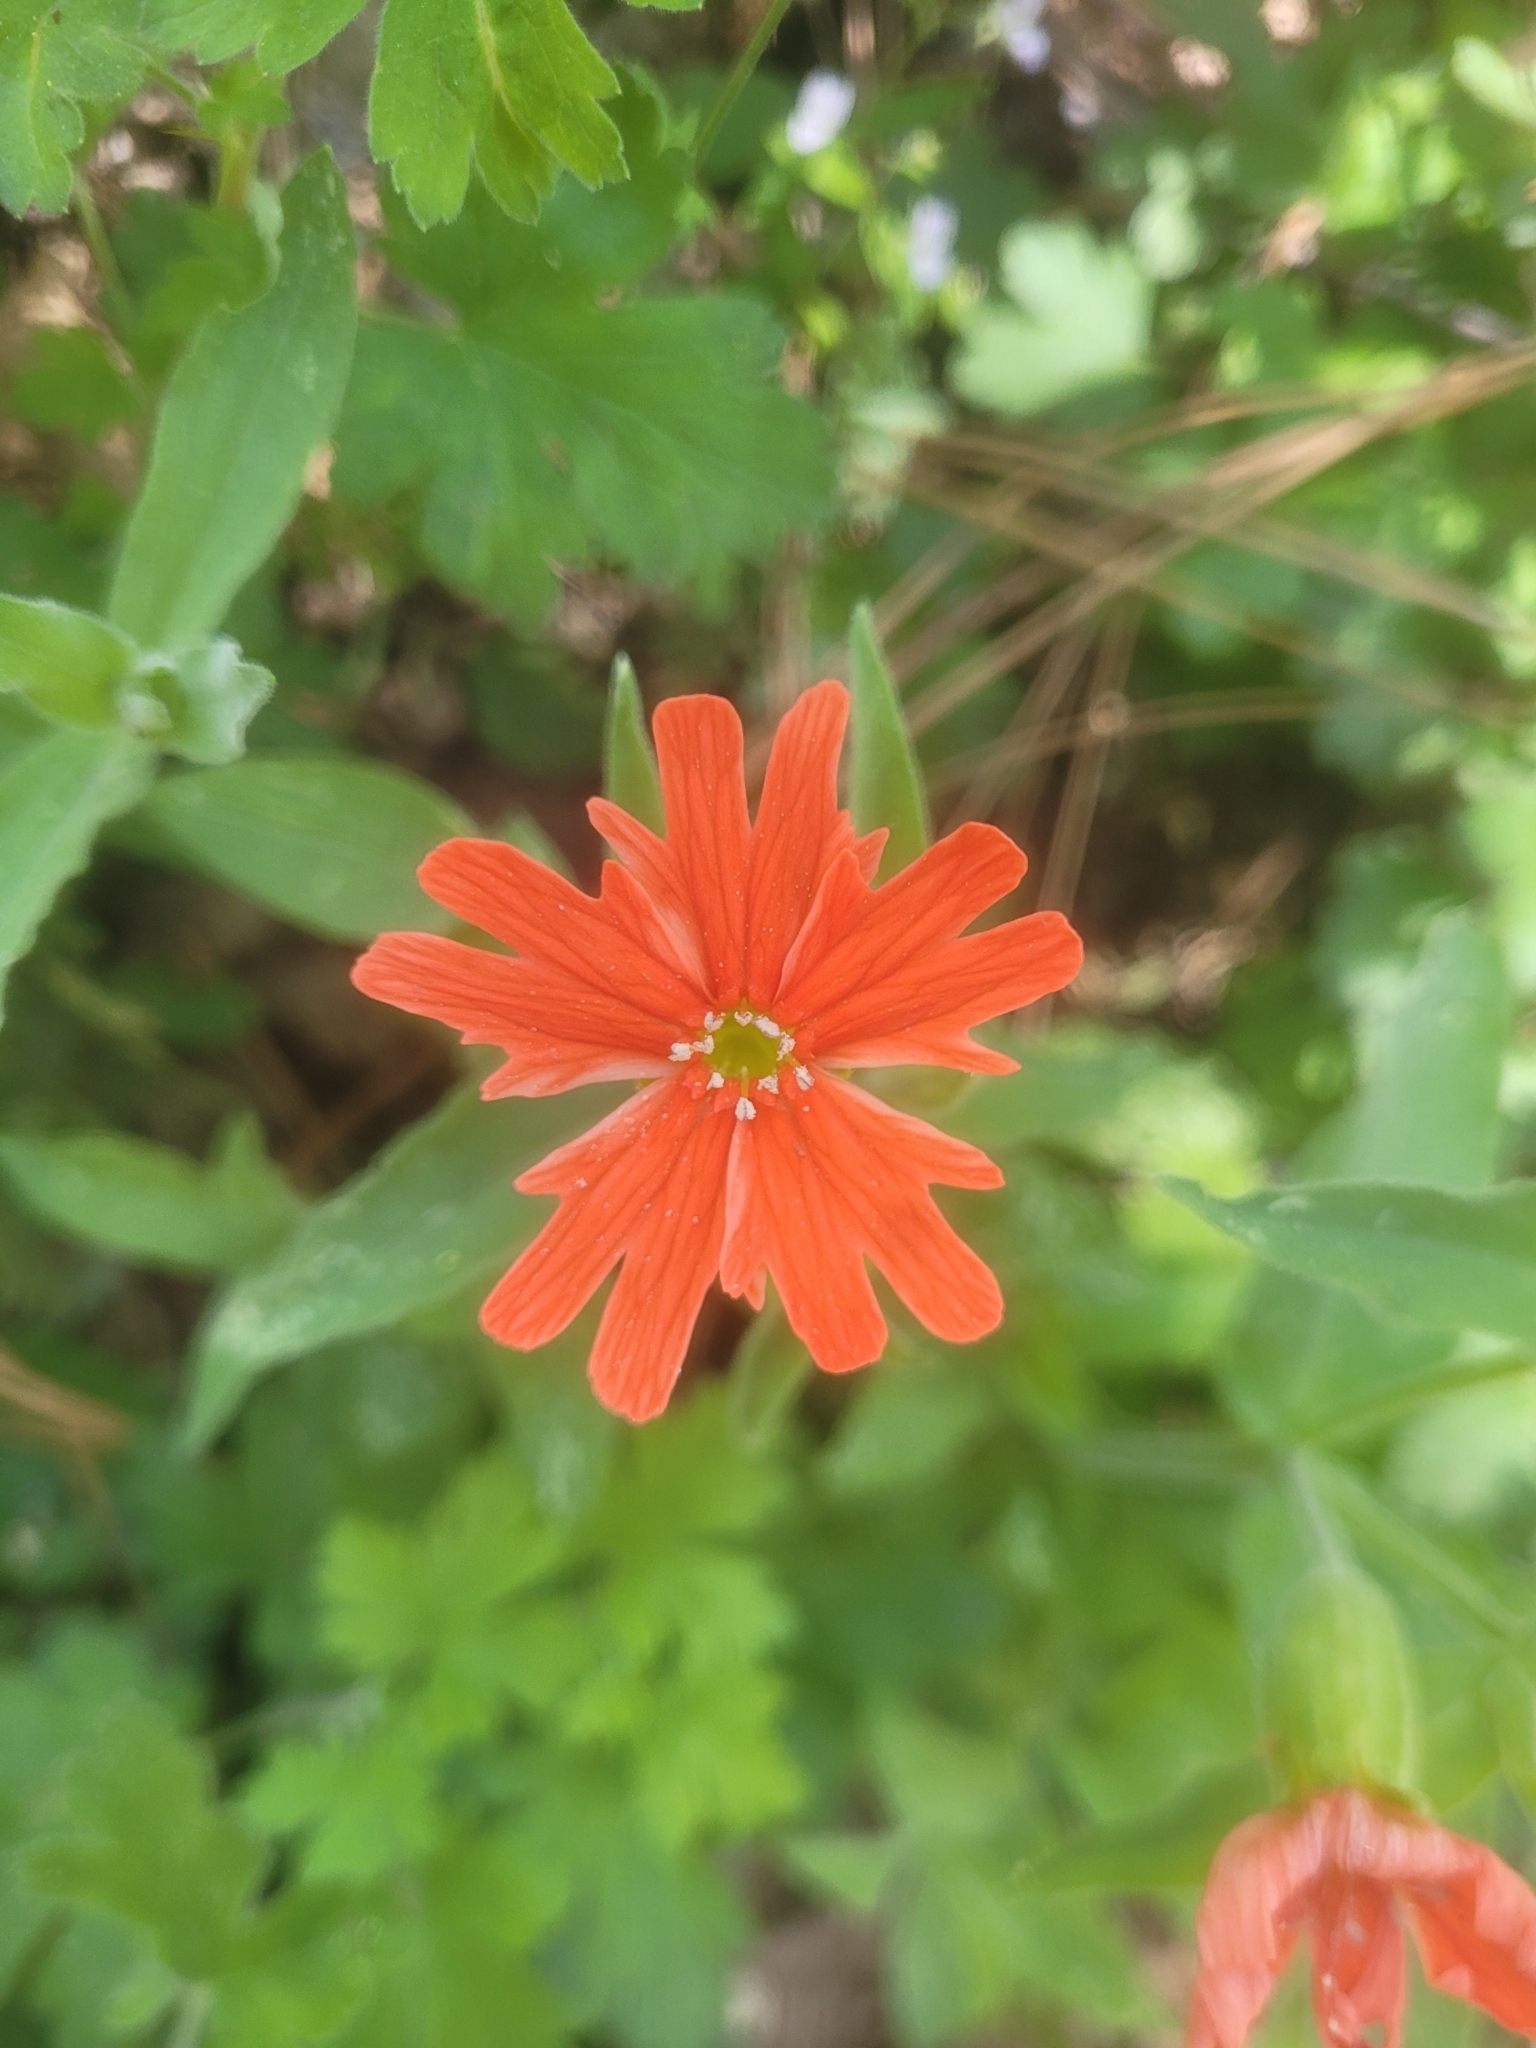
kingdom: Plantae
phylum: Tracheophyta
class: Magnoliopsida
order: Caryophyllales
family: Caryophyllaceae
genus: Silene
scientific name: Silene laciniata
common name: Indian-pink
